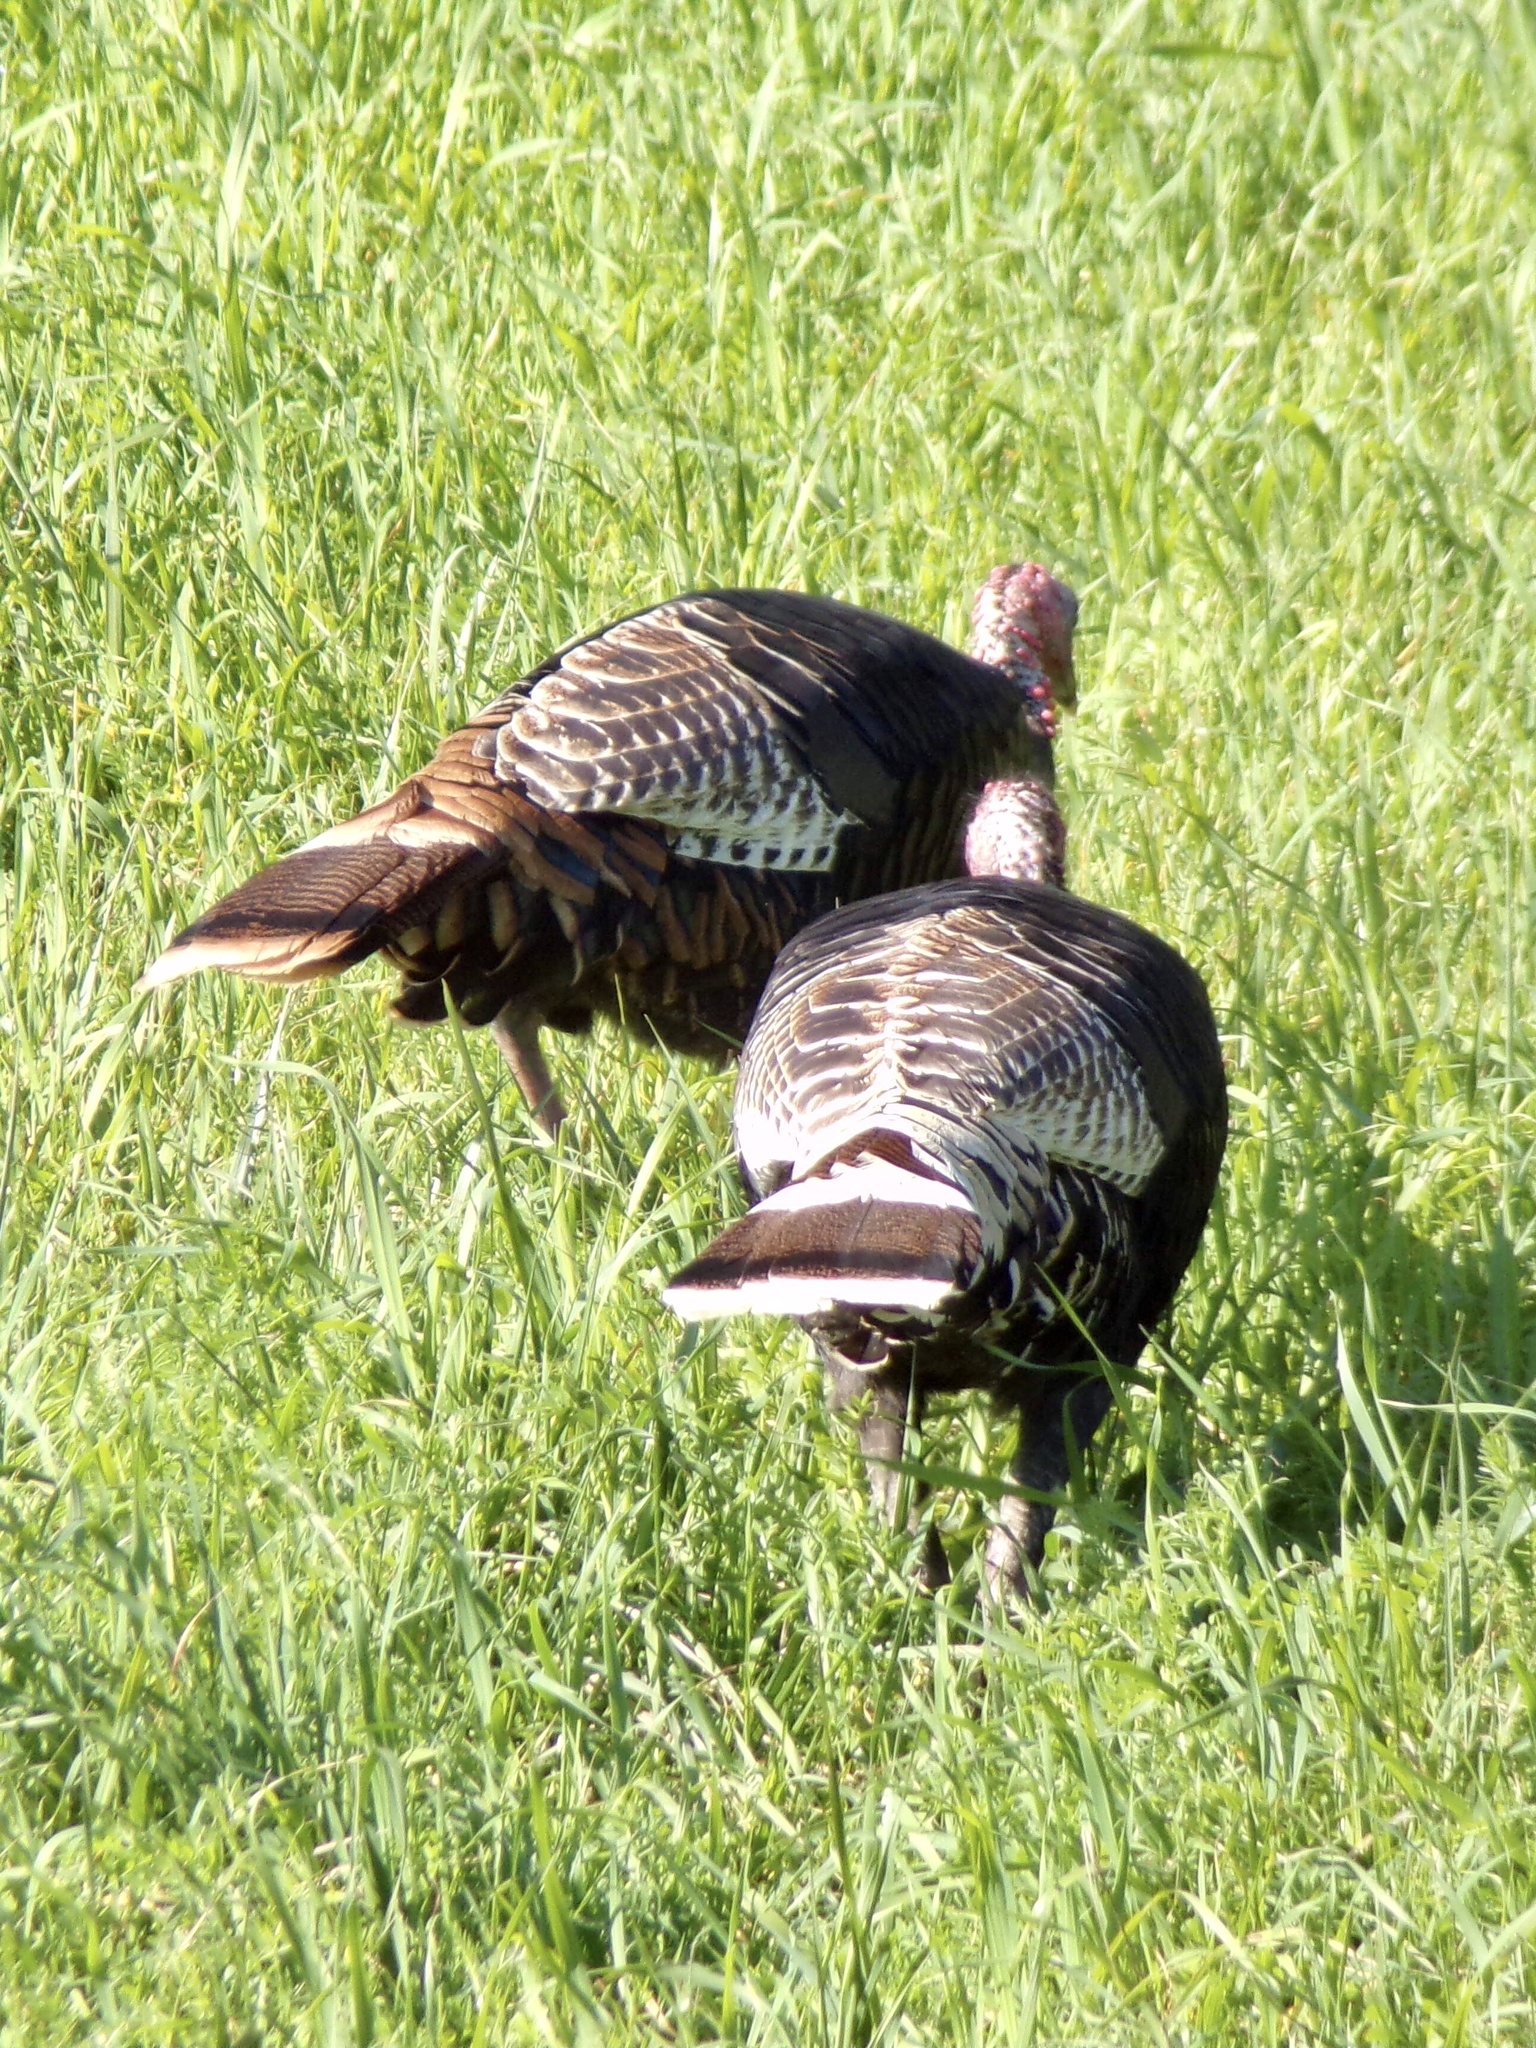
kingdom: Animalia
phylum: Chordata
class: Aves
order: Galliformes
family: Phasianidae
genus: Meleagris
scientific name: Meleagris gallopavo
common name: Wild turkey
